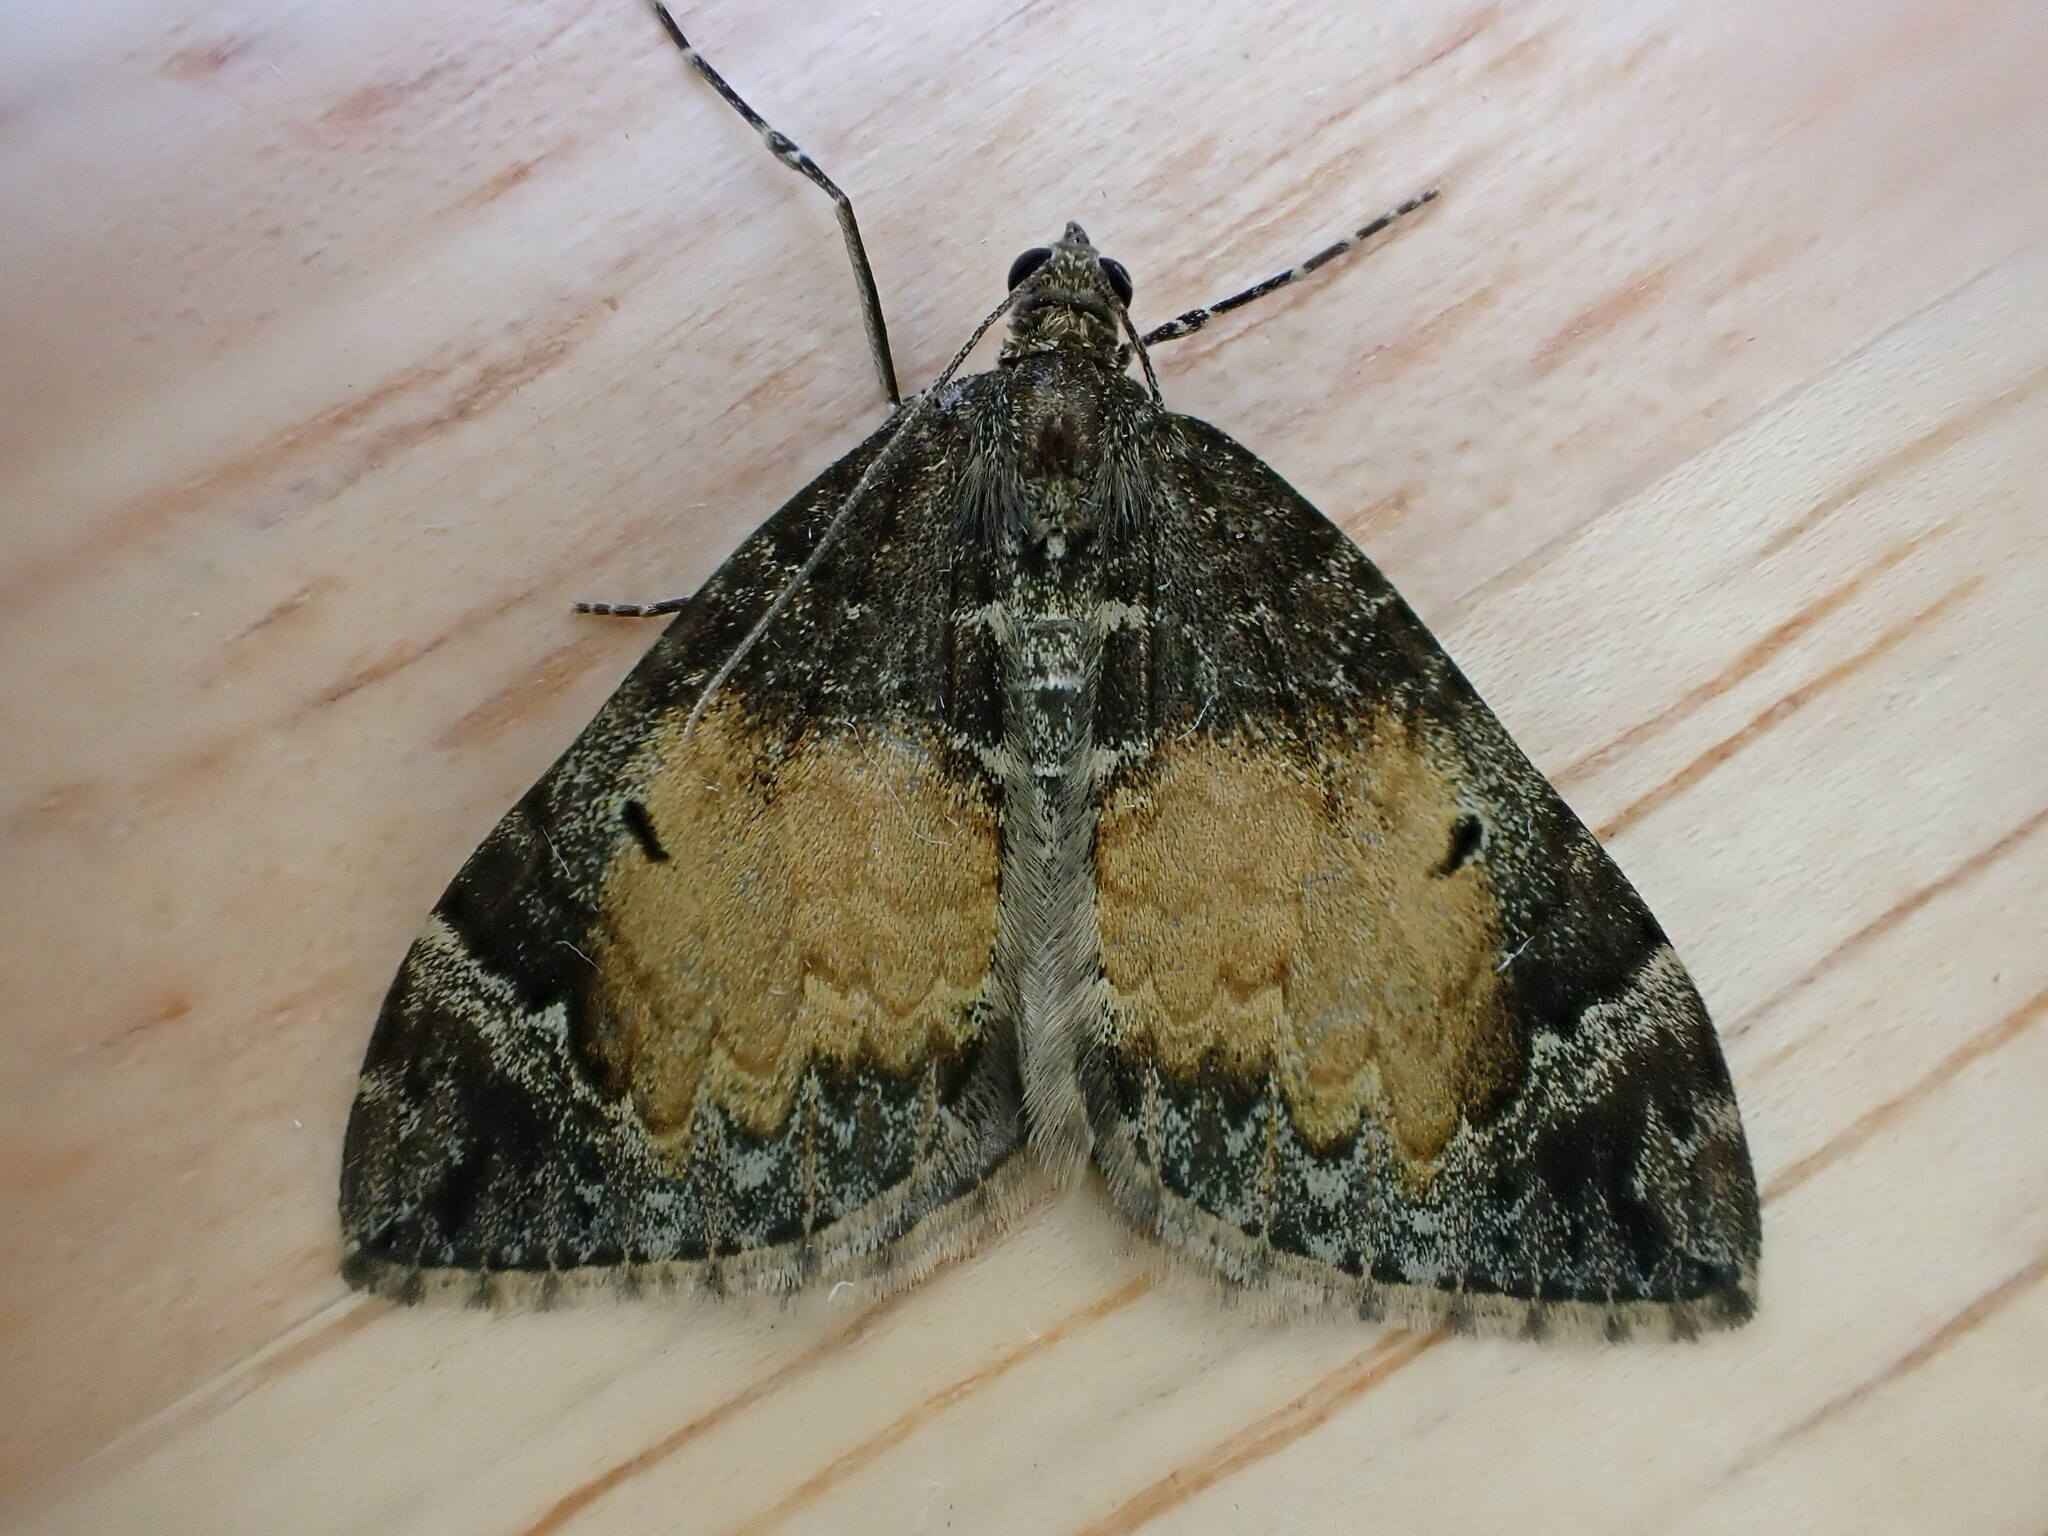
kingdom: Animalia
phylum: Arthropoda
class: Insecta
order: Lepidoptera
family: Geometridae
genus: Dysstroma
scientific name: Dysstroma truncata
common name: Common marbled carpet
